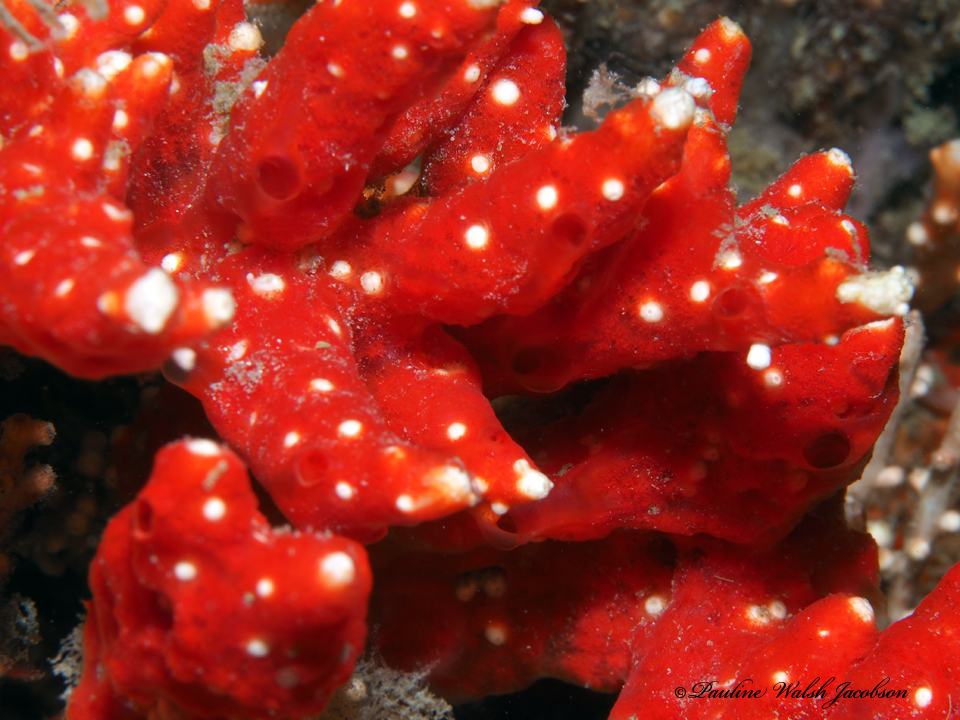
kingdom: Animalia
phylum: Cnidaria
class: Anthozoa
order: Malacalcyonacea
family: Carijoidae
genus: Carijoa
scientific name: Carijoa riisei
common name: Snowflake coral
